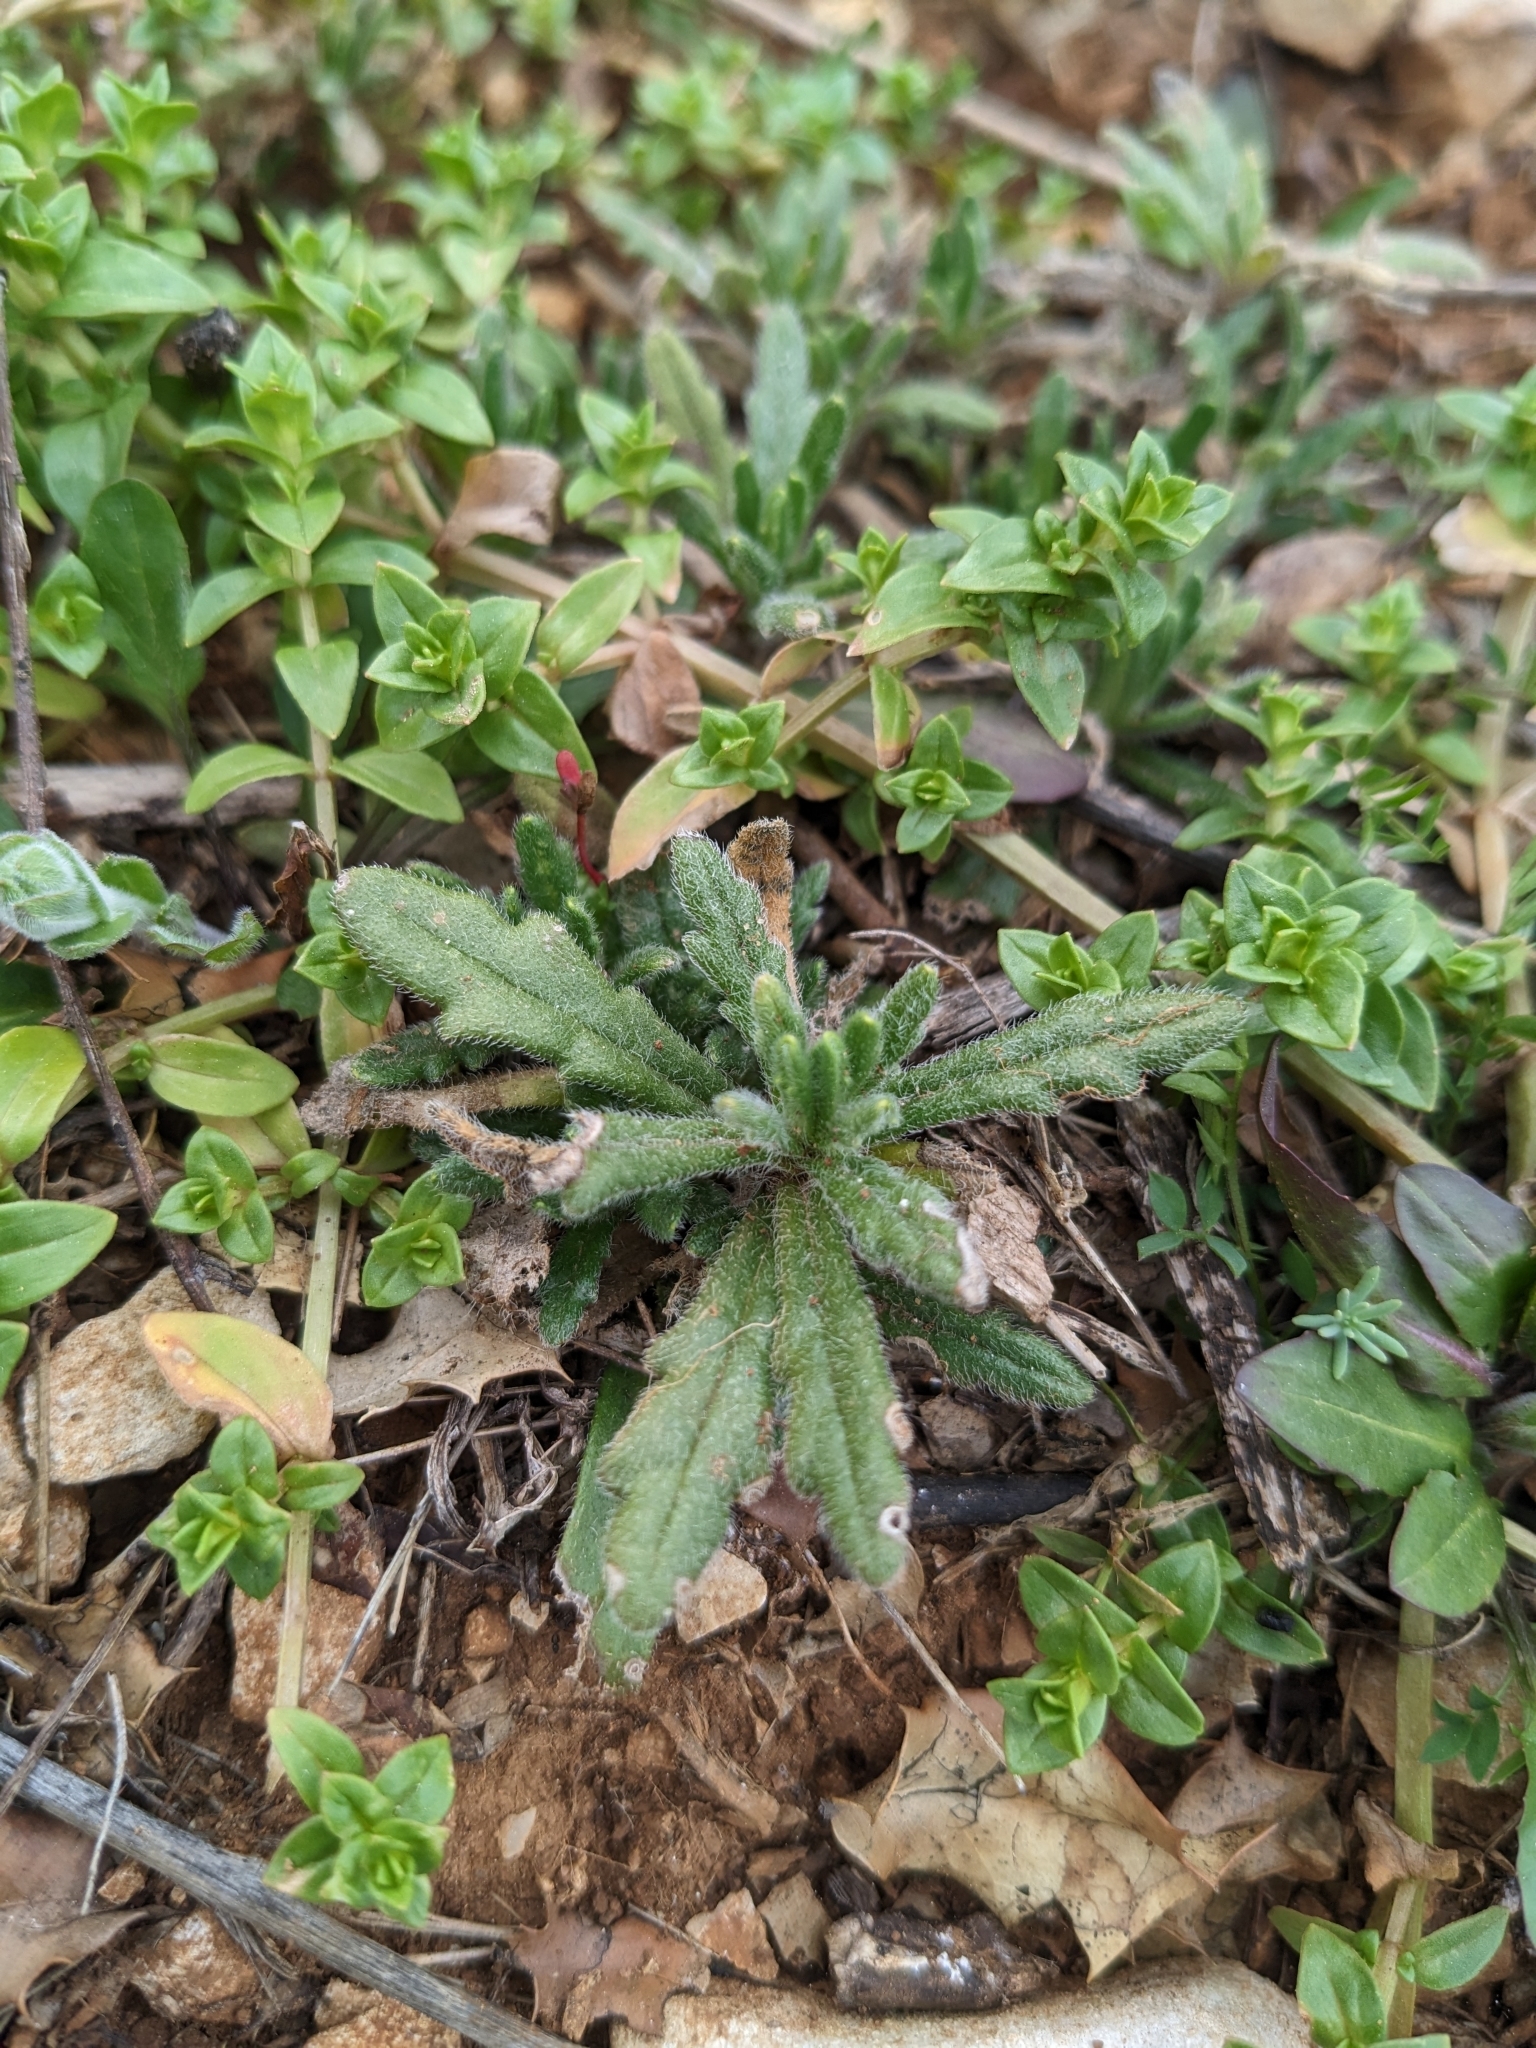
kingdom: Plantae
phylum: Tracheophyta
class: Magnoliopsida
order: Lamiales
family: Lamiaceae
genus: Ajuga
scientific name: Ajuga iva
